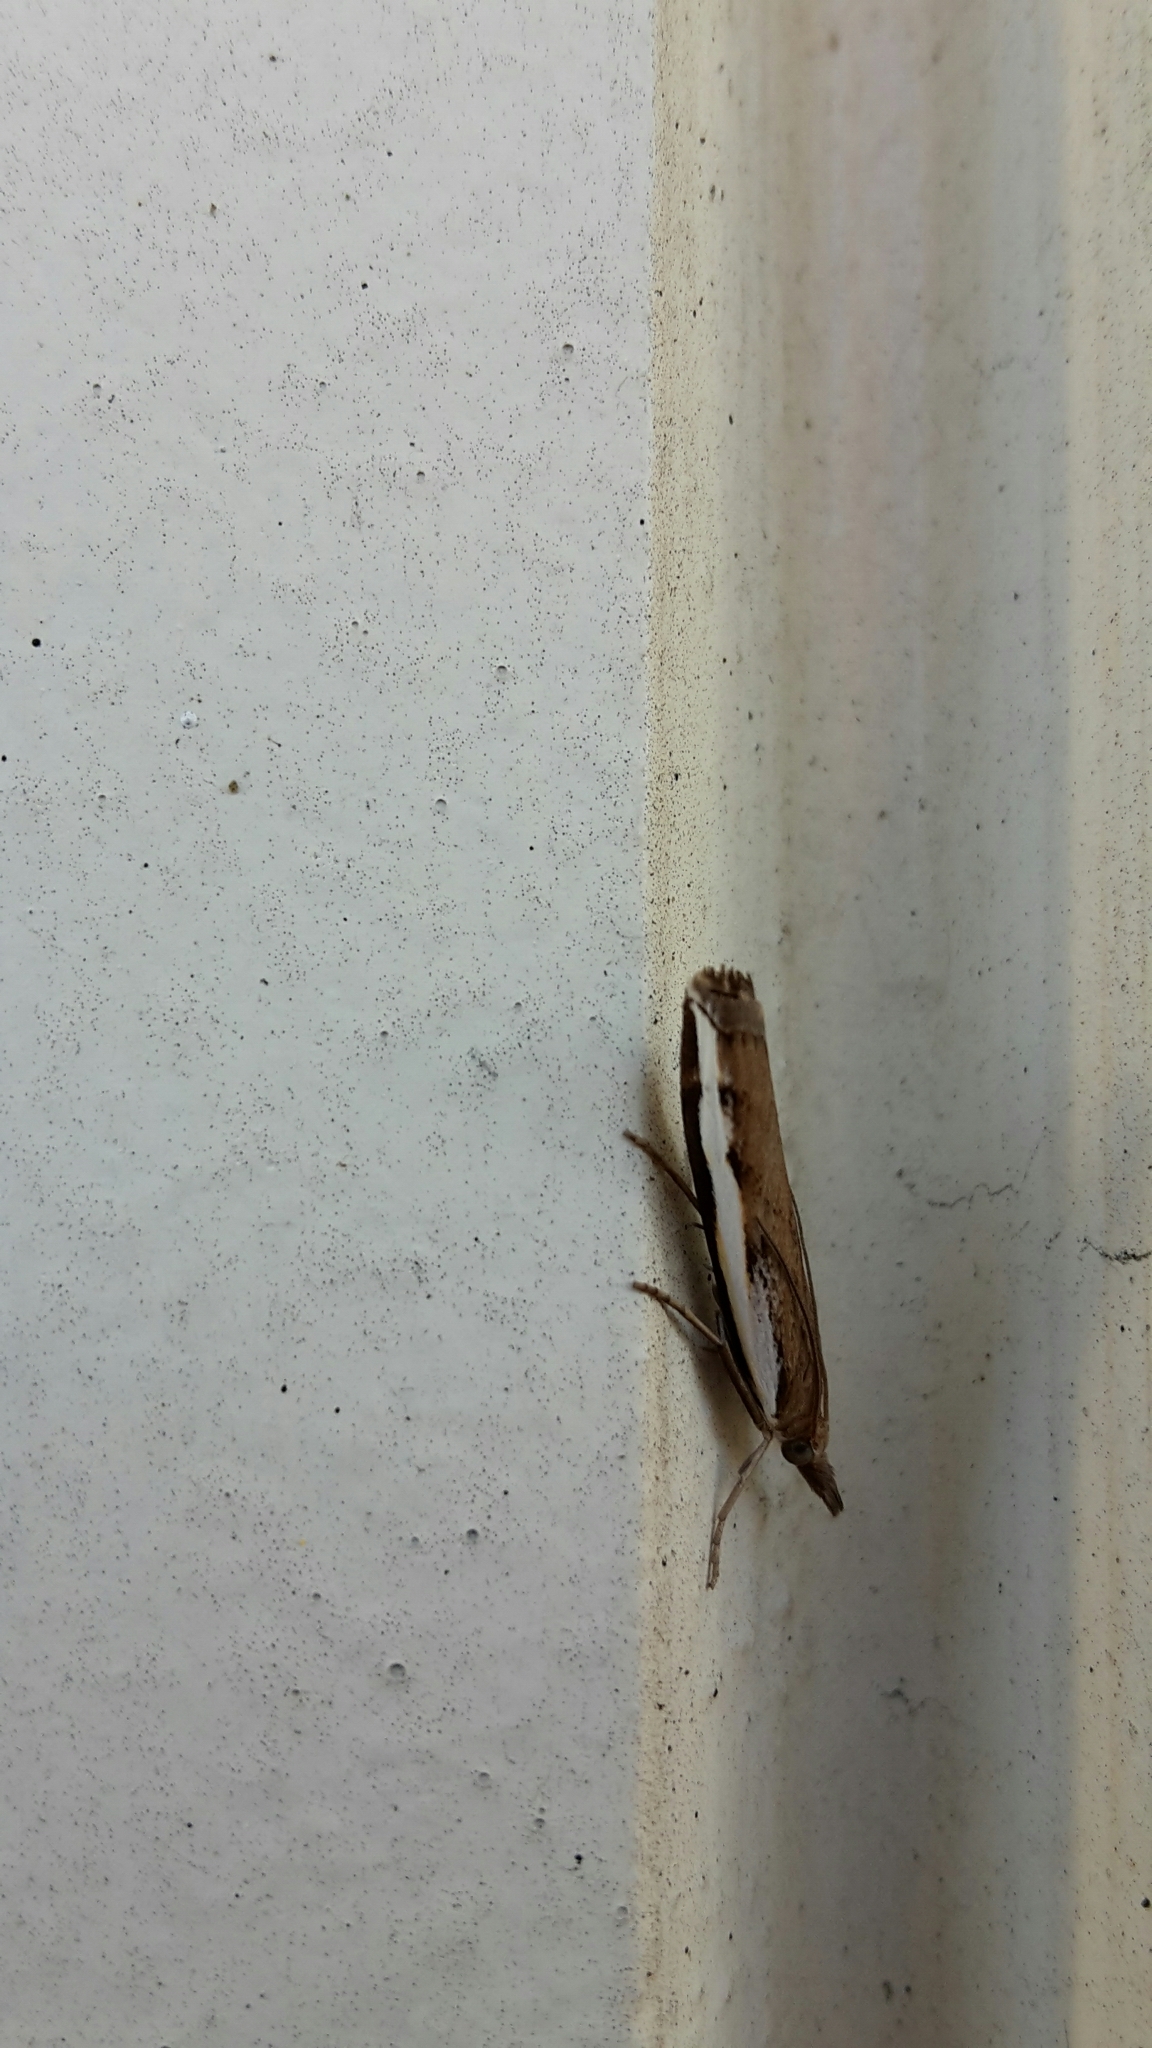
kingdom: Animalia
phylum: Arthropoda
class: Insecta
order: Lepidoptera
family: Crambidae
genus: Orocrambus
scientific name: Orocrambus flexuosellus
